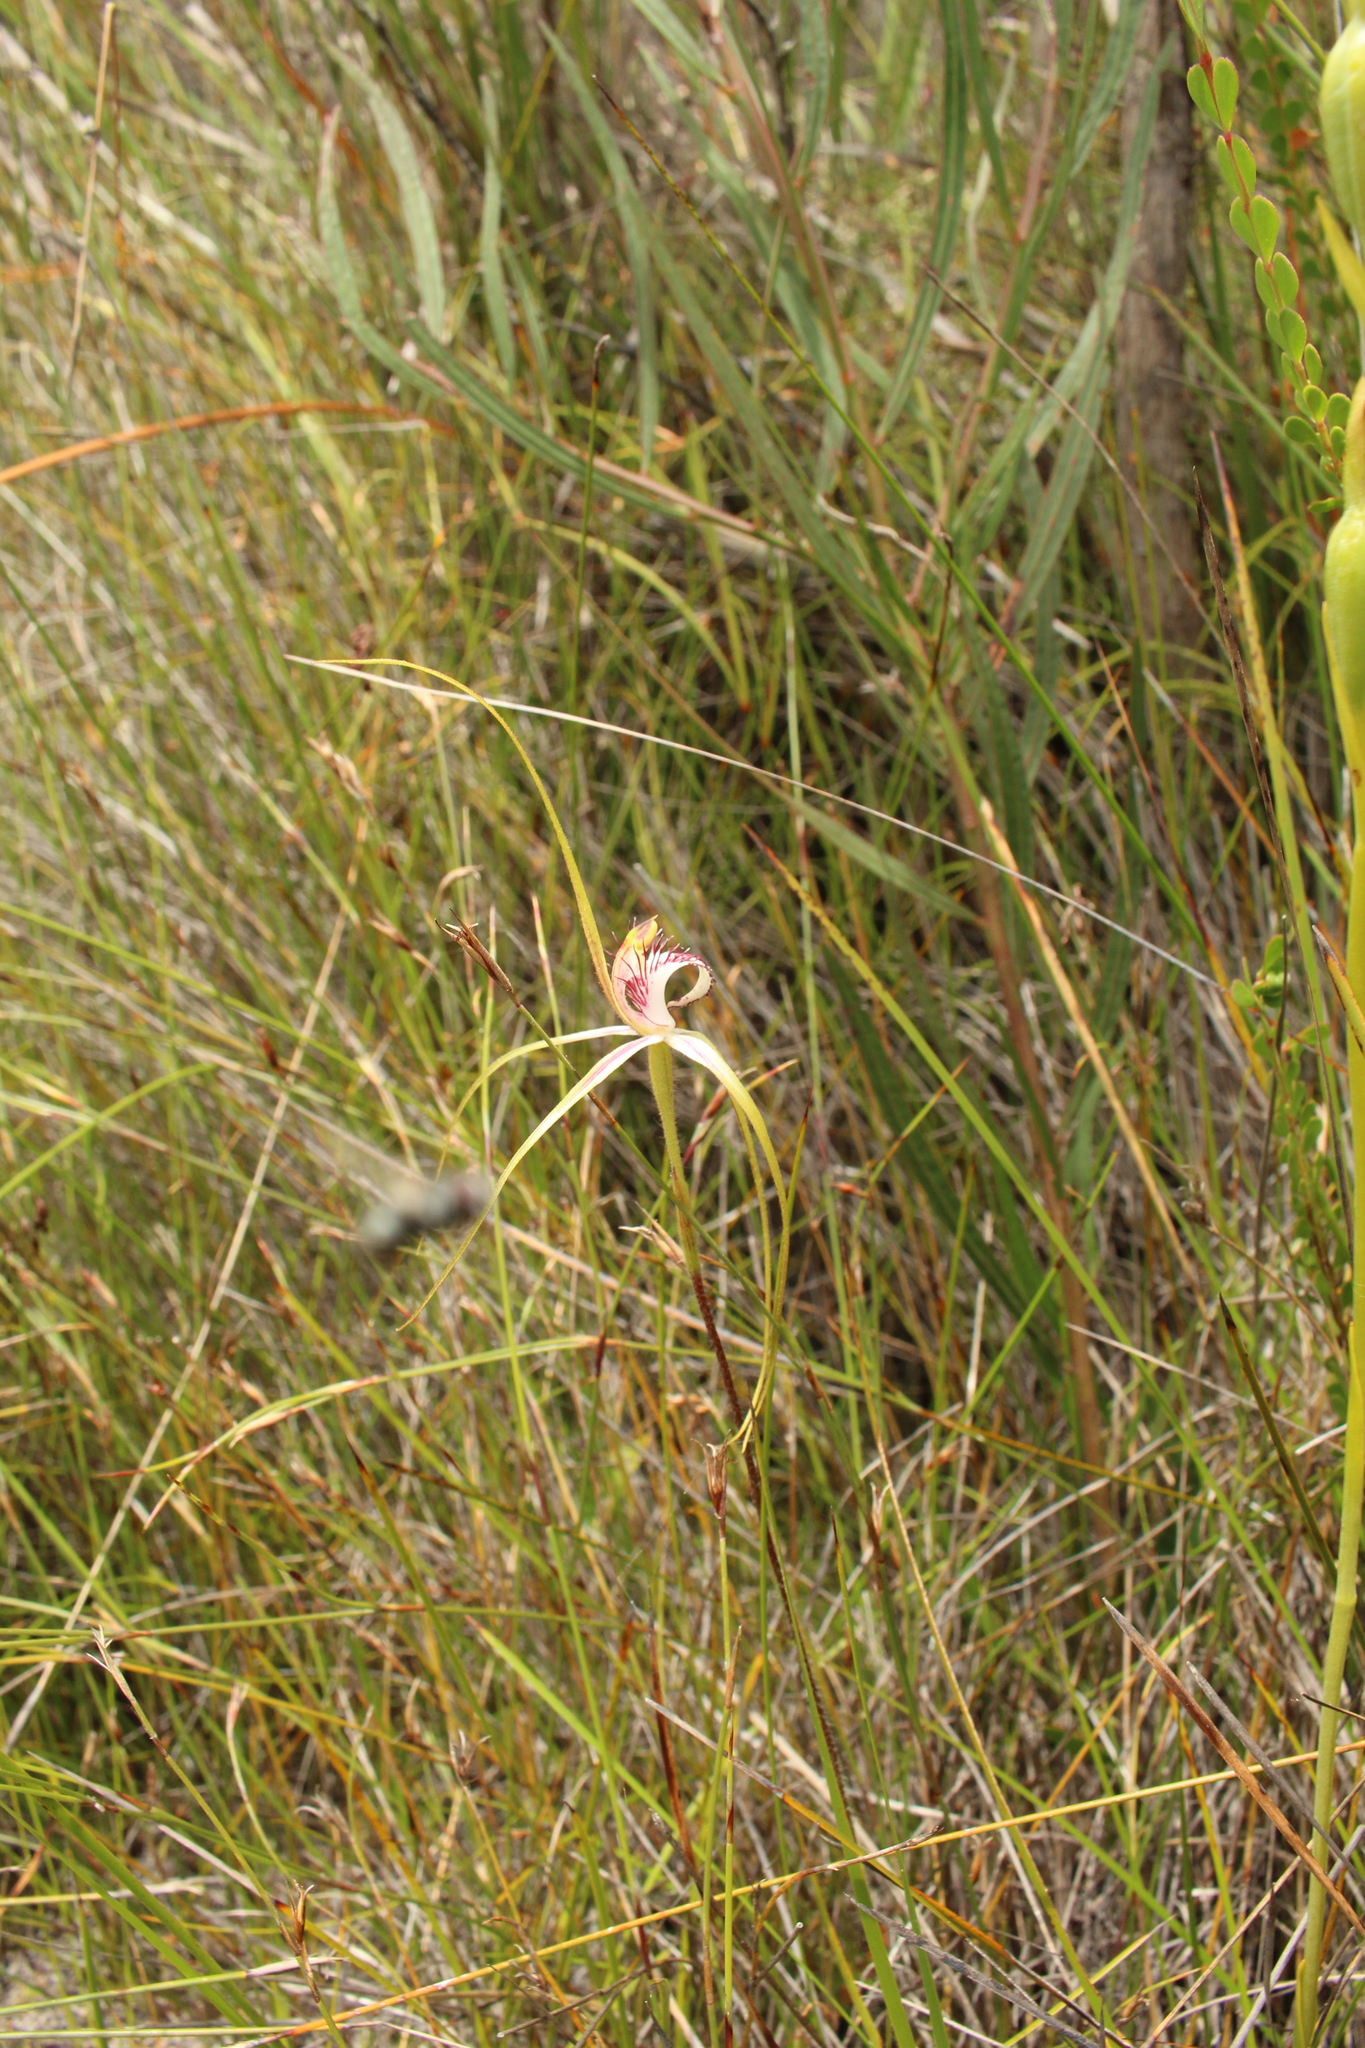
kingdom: Plantae
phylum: Tracheophyta
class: Liliopsida
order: Asparagales
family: Orchidaceae
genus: Caladenia
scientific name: Caladenia serotina
